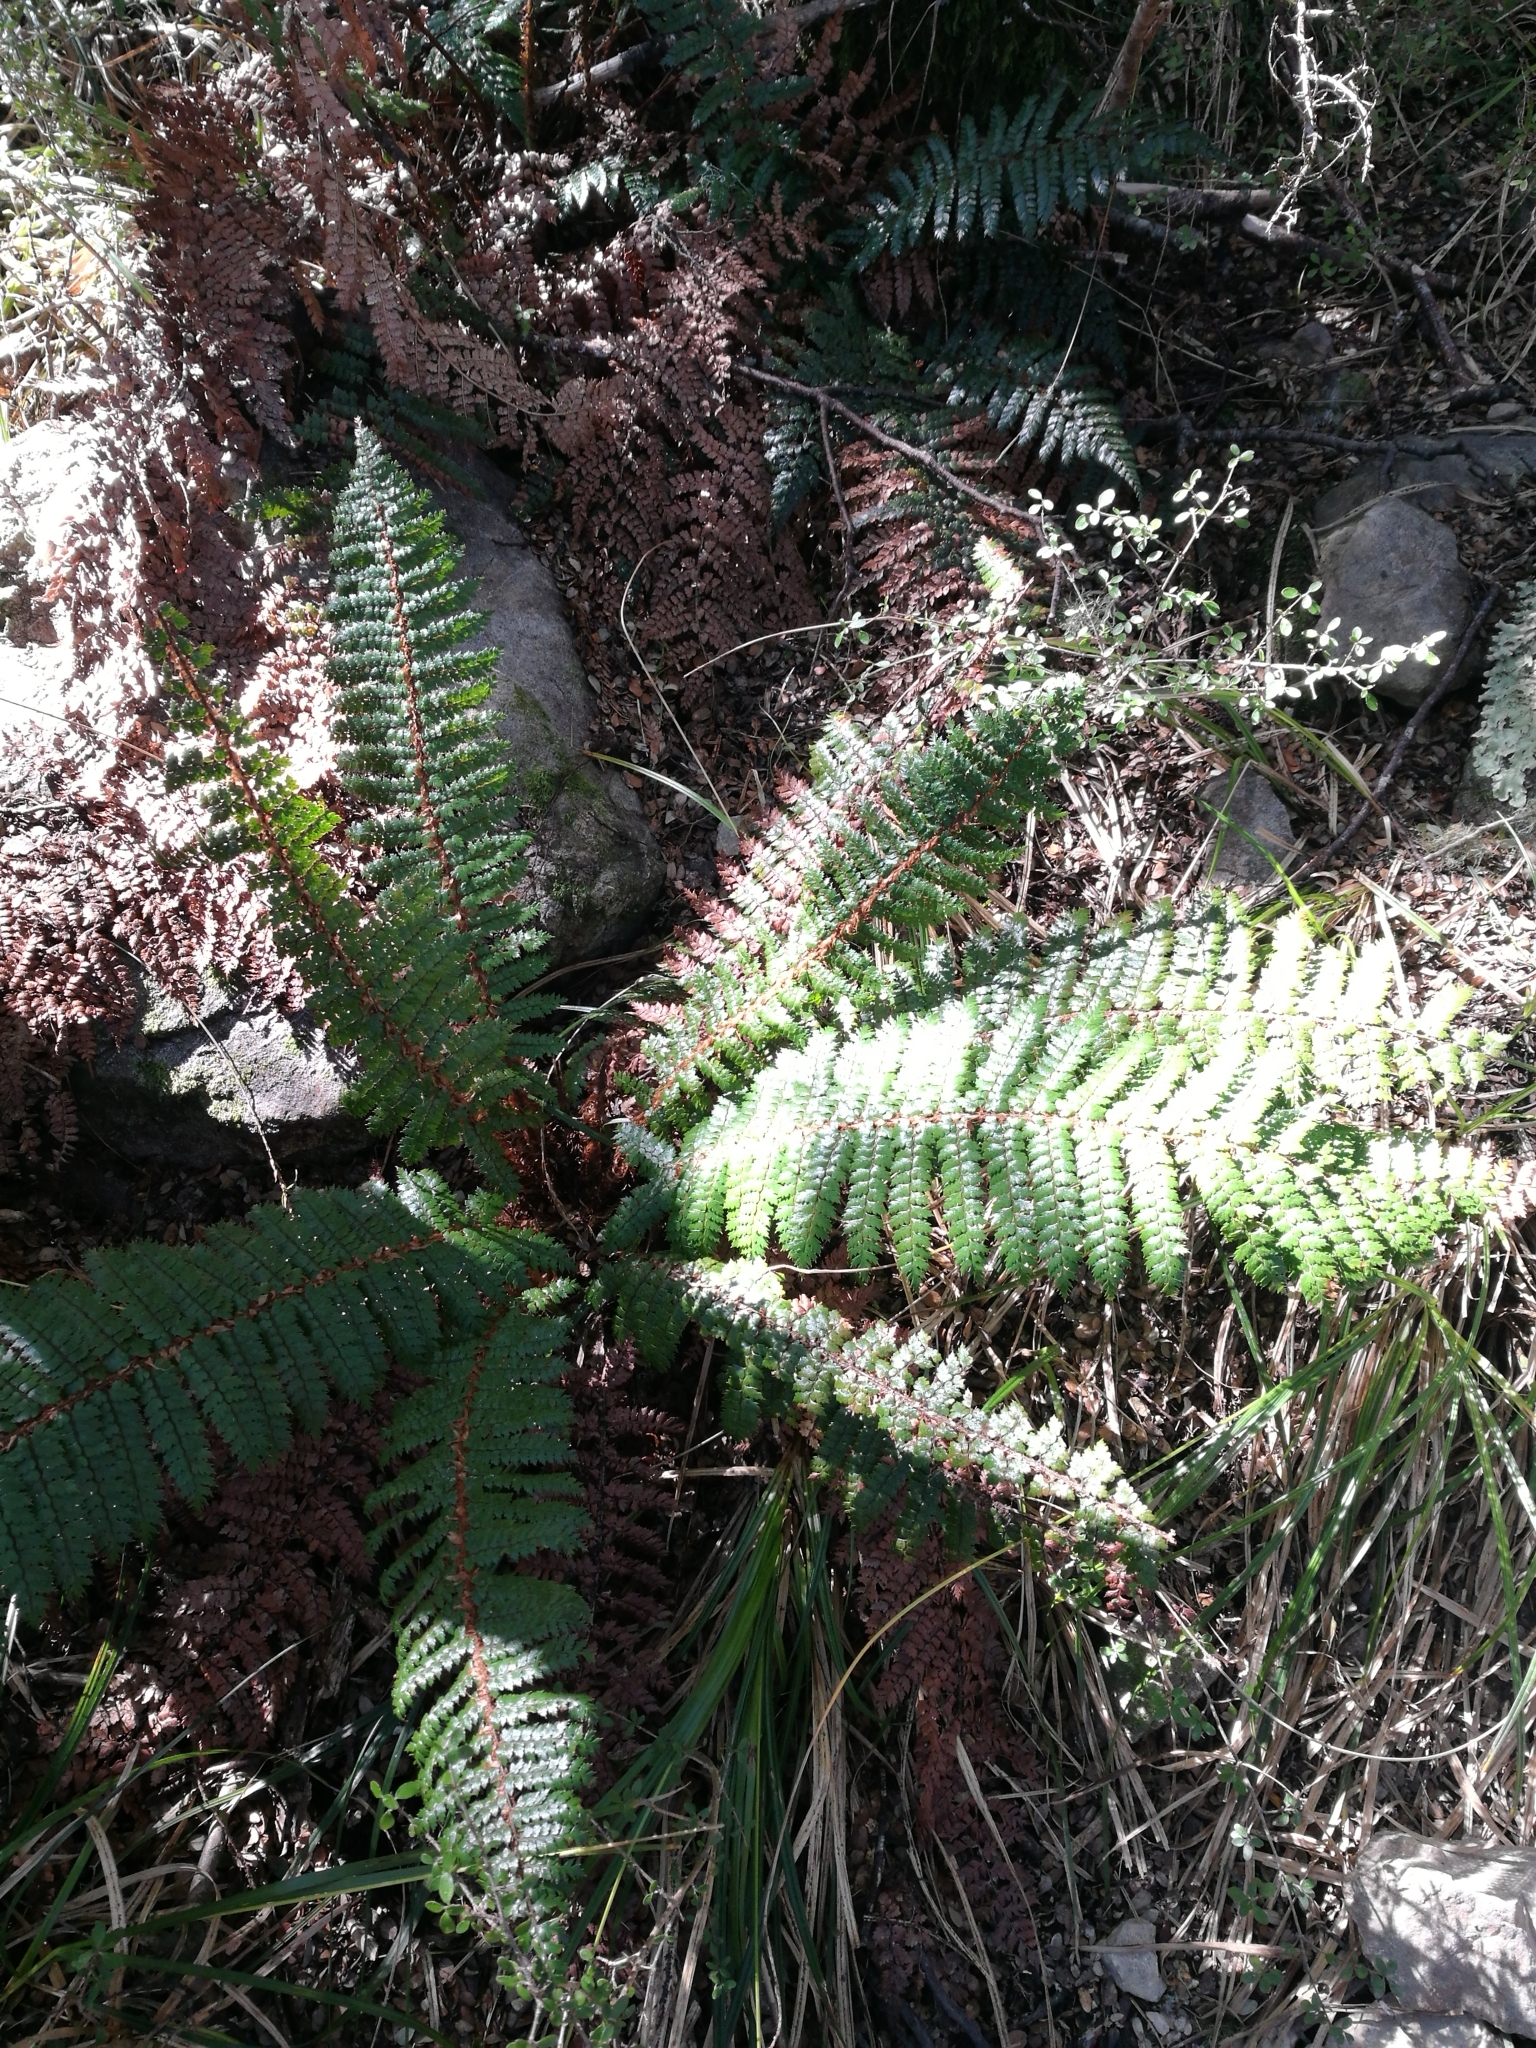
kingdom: Plantae
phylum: Tracheophyta
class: Polypodiopsida
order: Polypodiales
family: Dryopteridaceae
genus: Polystichum
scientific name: Polystichum vestitum
